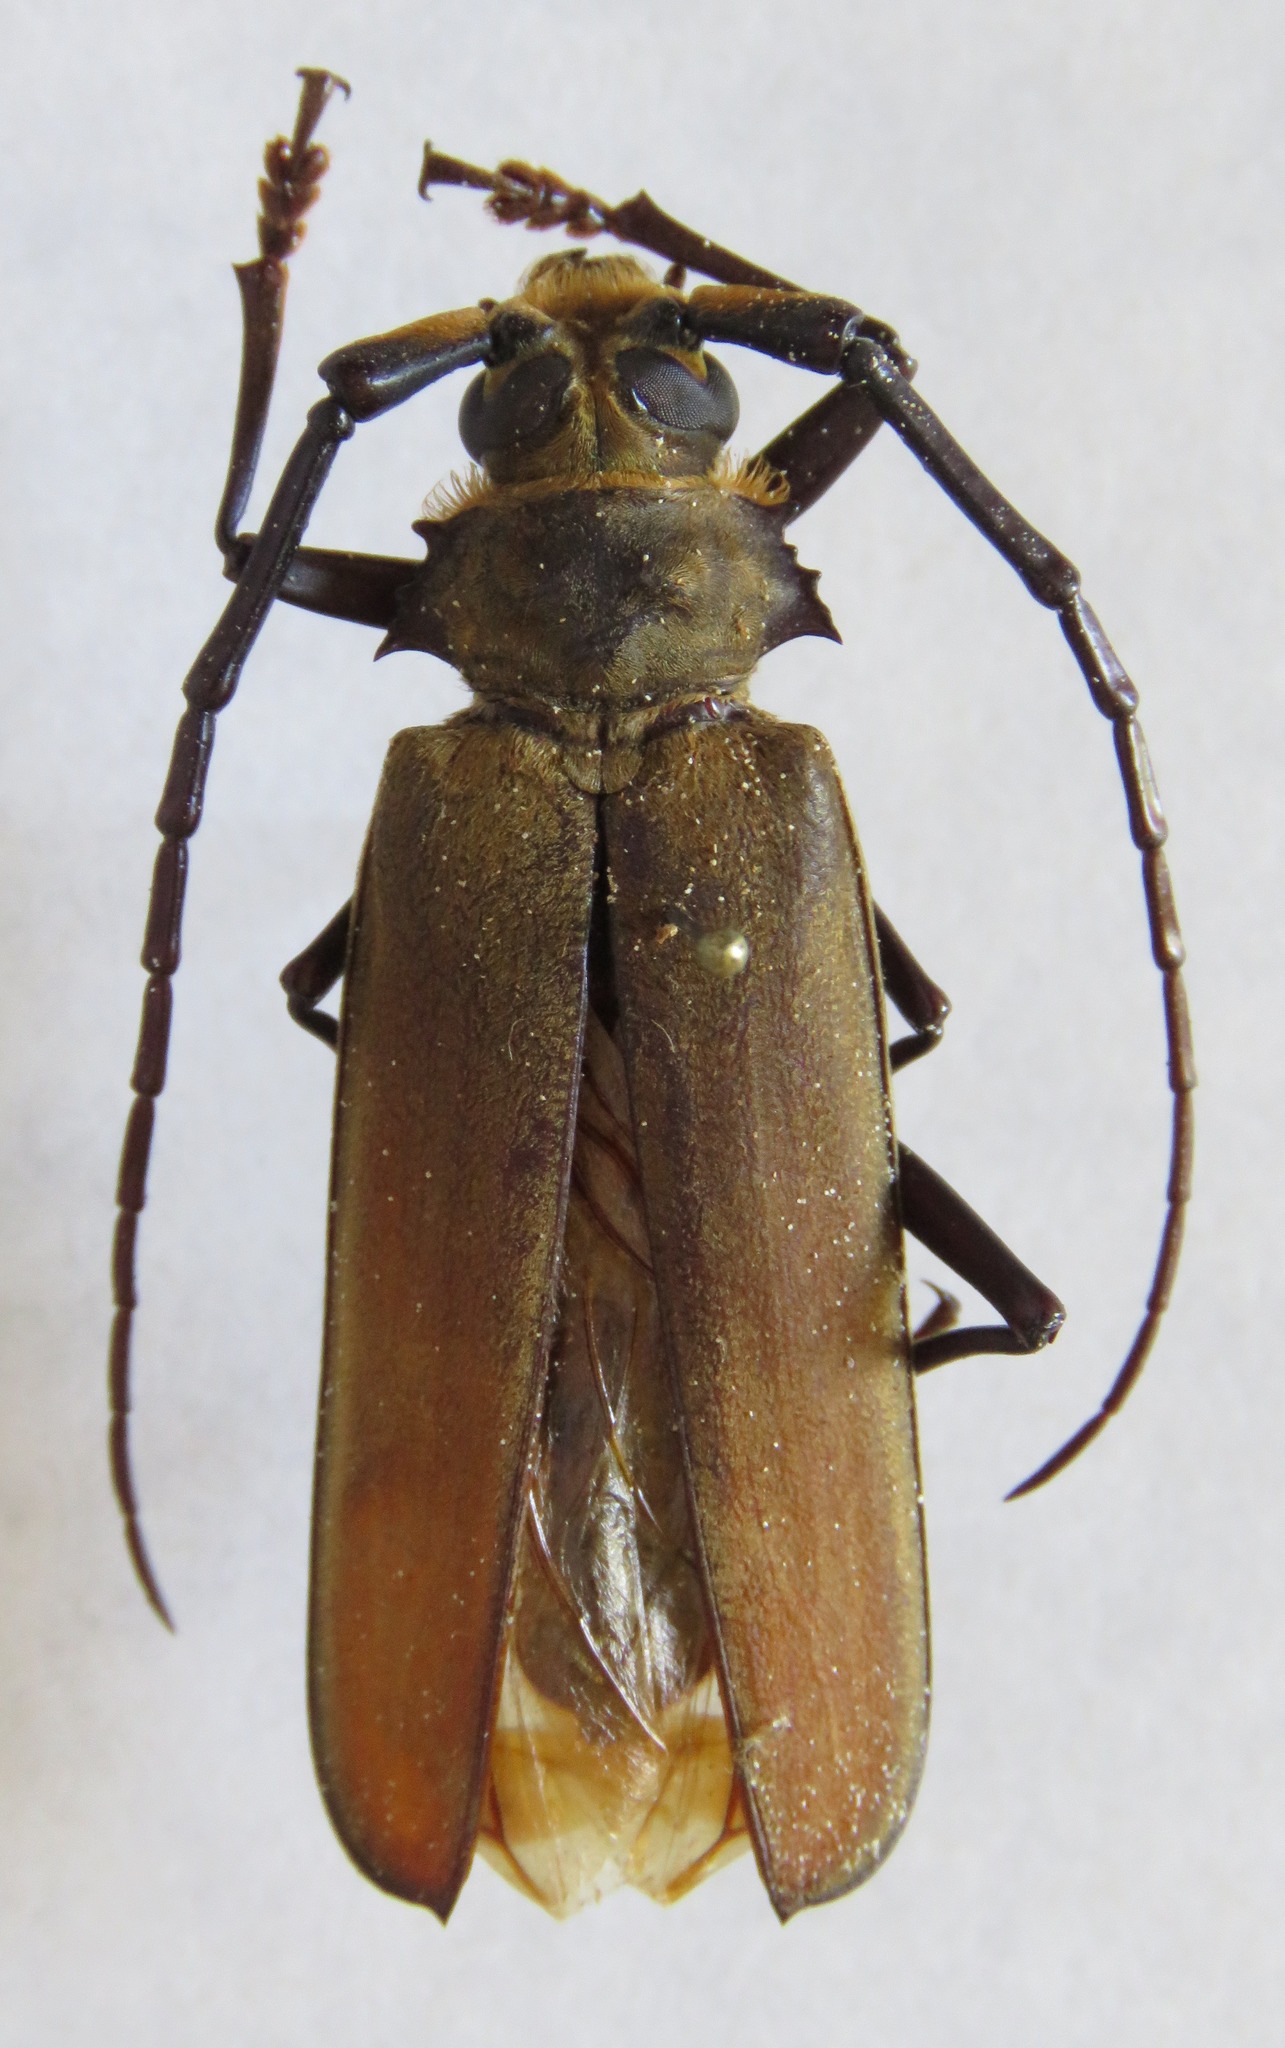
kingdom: Animalia
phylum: Arthropoda
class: Insecta
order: Coleoptera
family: Cerambycidae
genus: Orthomegas
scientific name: Orthomegas marechali
